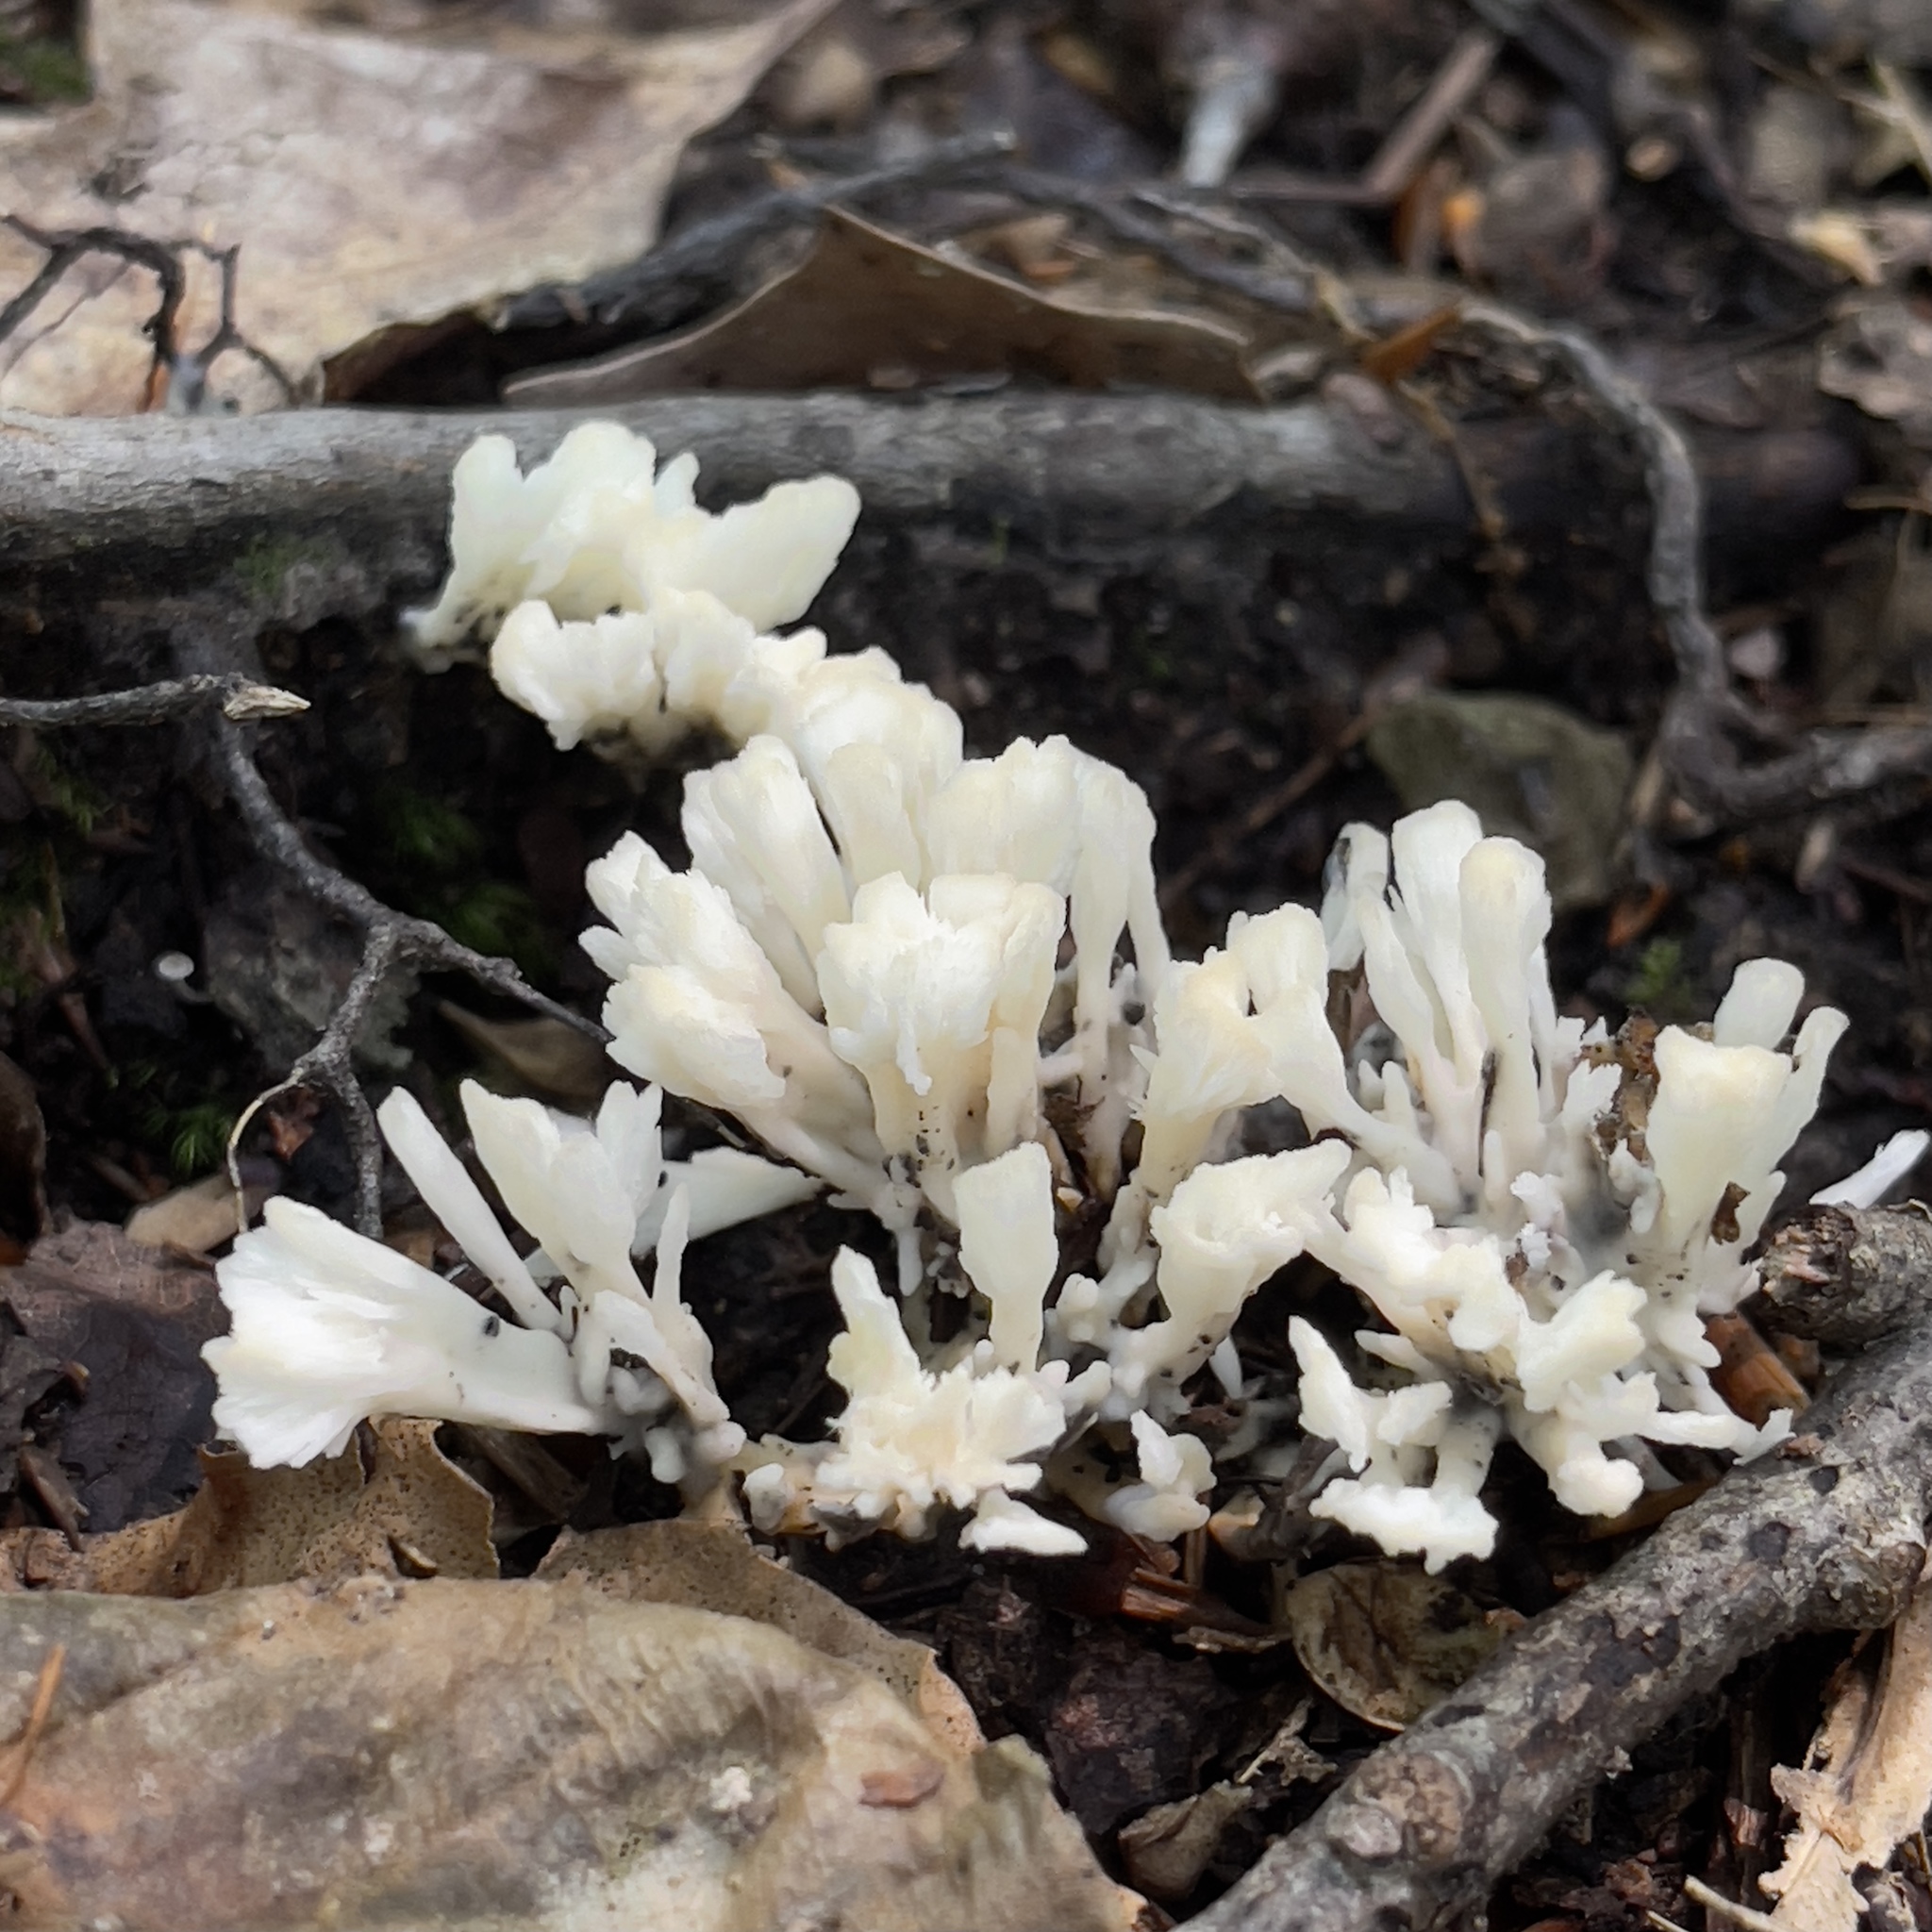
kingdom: Fungi
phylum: Basidiomycota
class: Agaricomycetes
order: Sebacinales
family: Sebacinaceae
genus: Sebacina
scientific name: Sebacina schweinitzii
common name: Jellied false coral fungus
